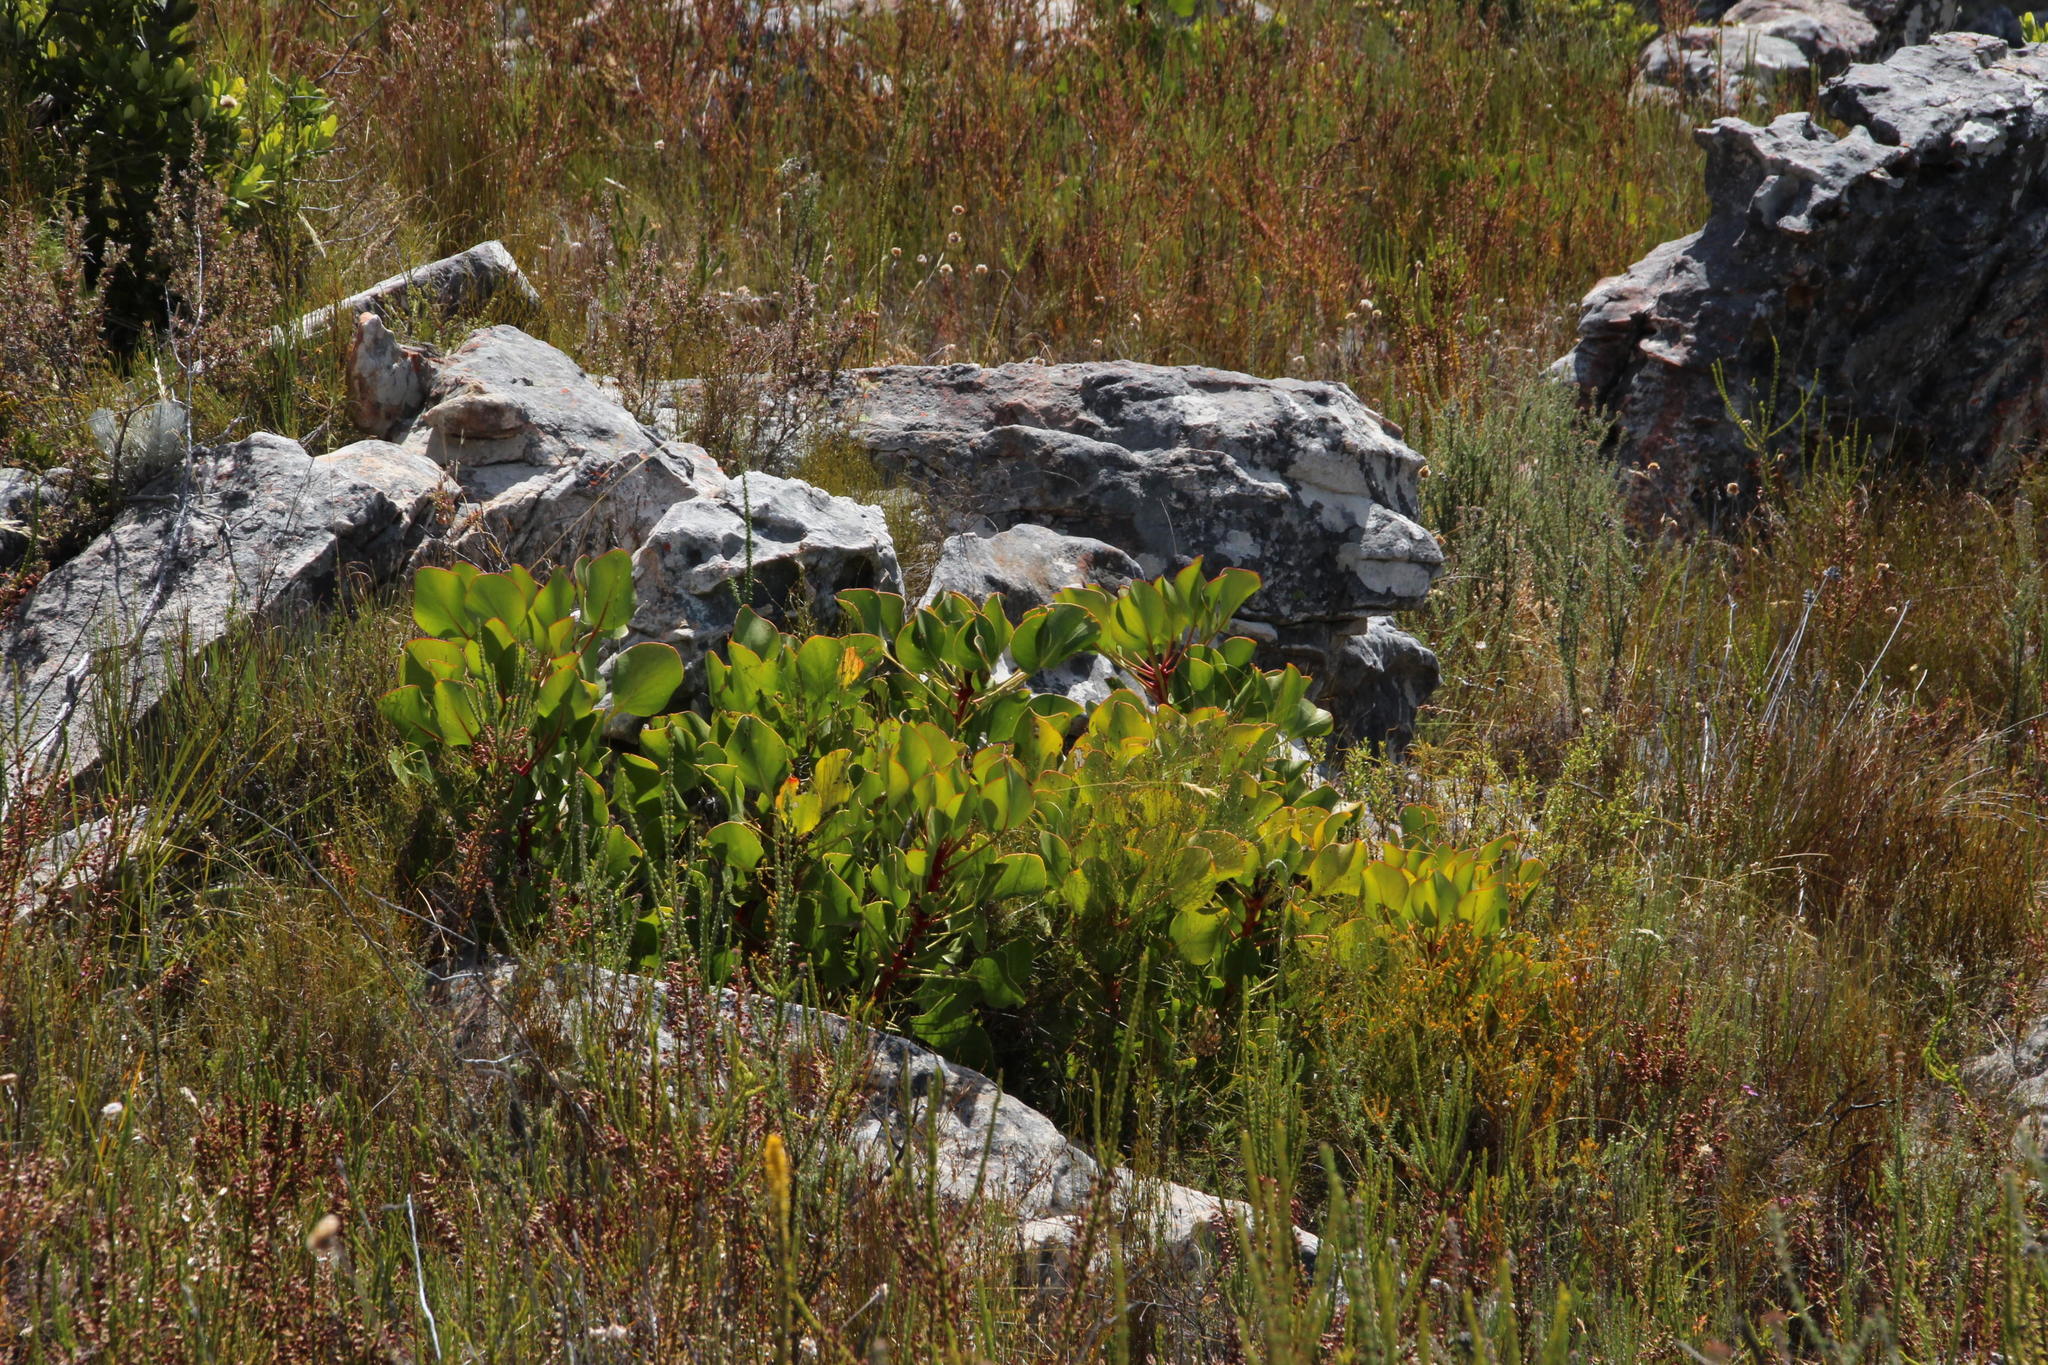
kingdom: Plantae
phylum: Tracheophyta
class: Magnoliopsida
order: Proteales
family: Proteaceae
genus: Protea
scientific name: Protea cynaroides
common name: King protea
